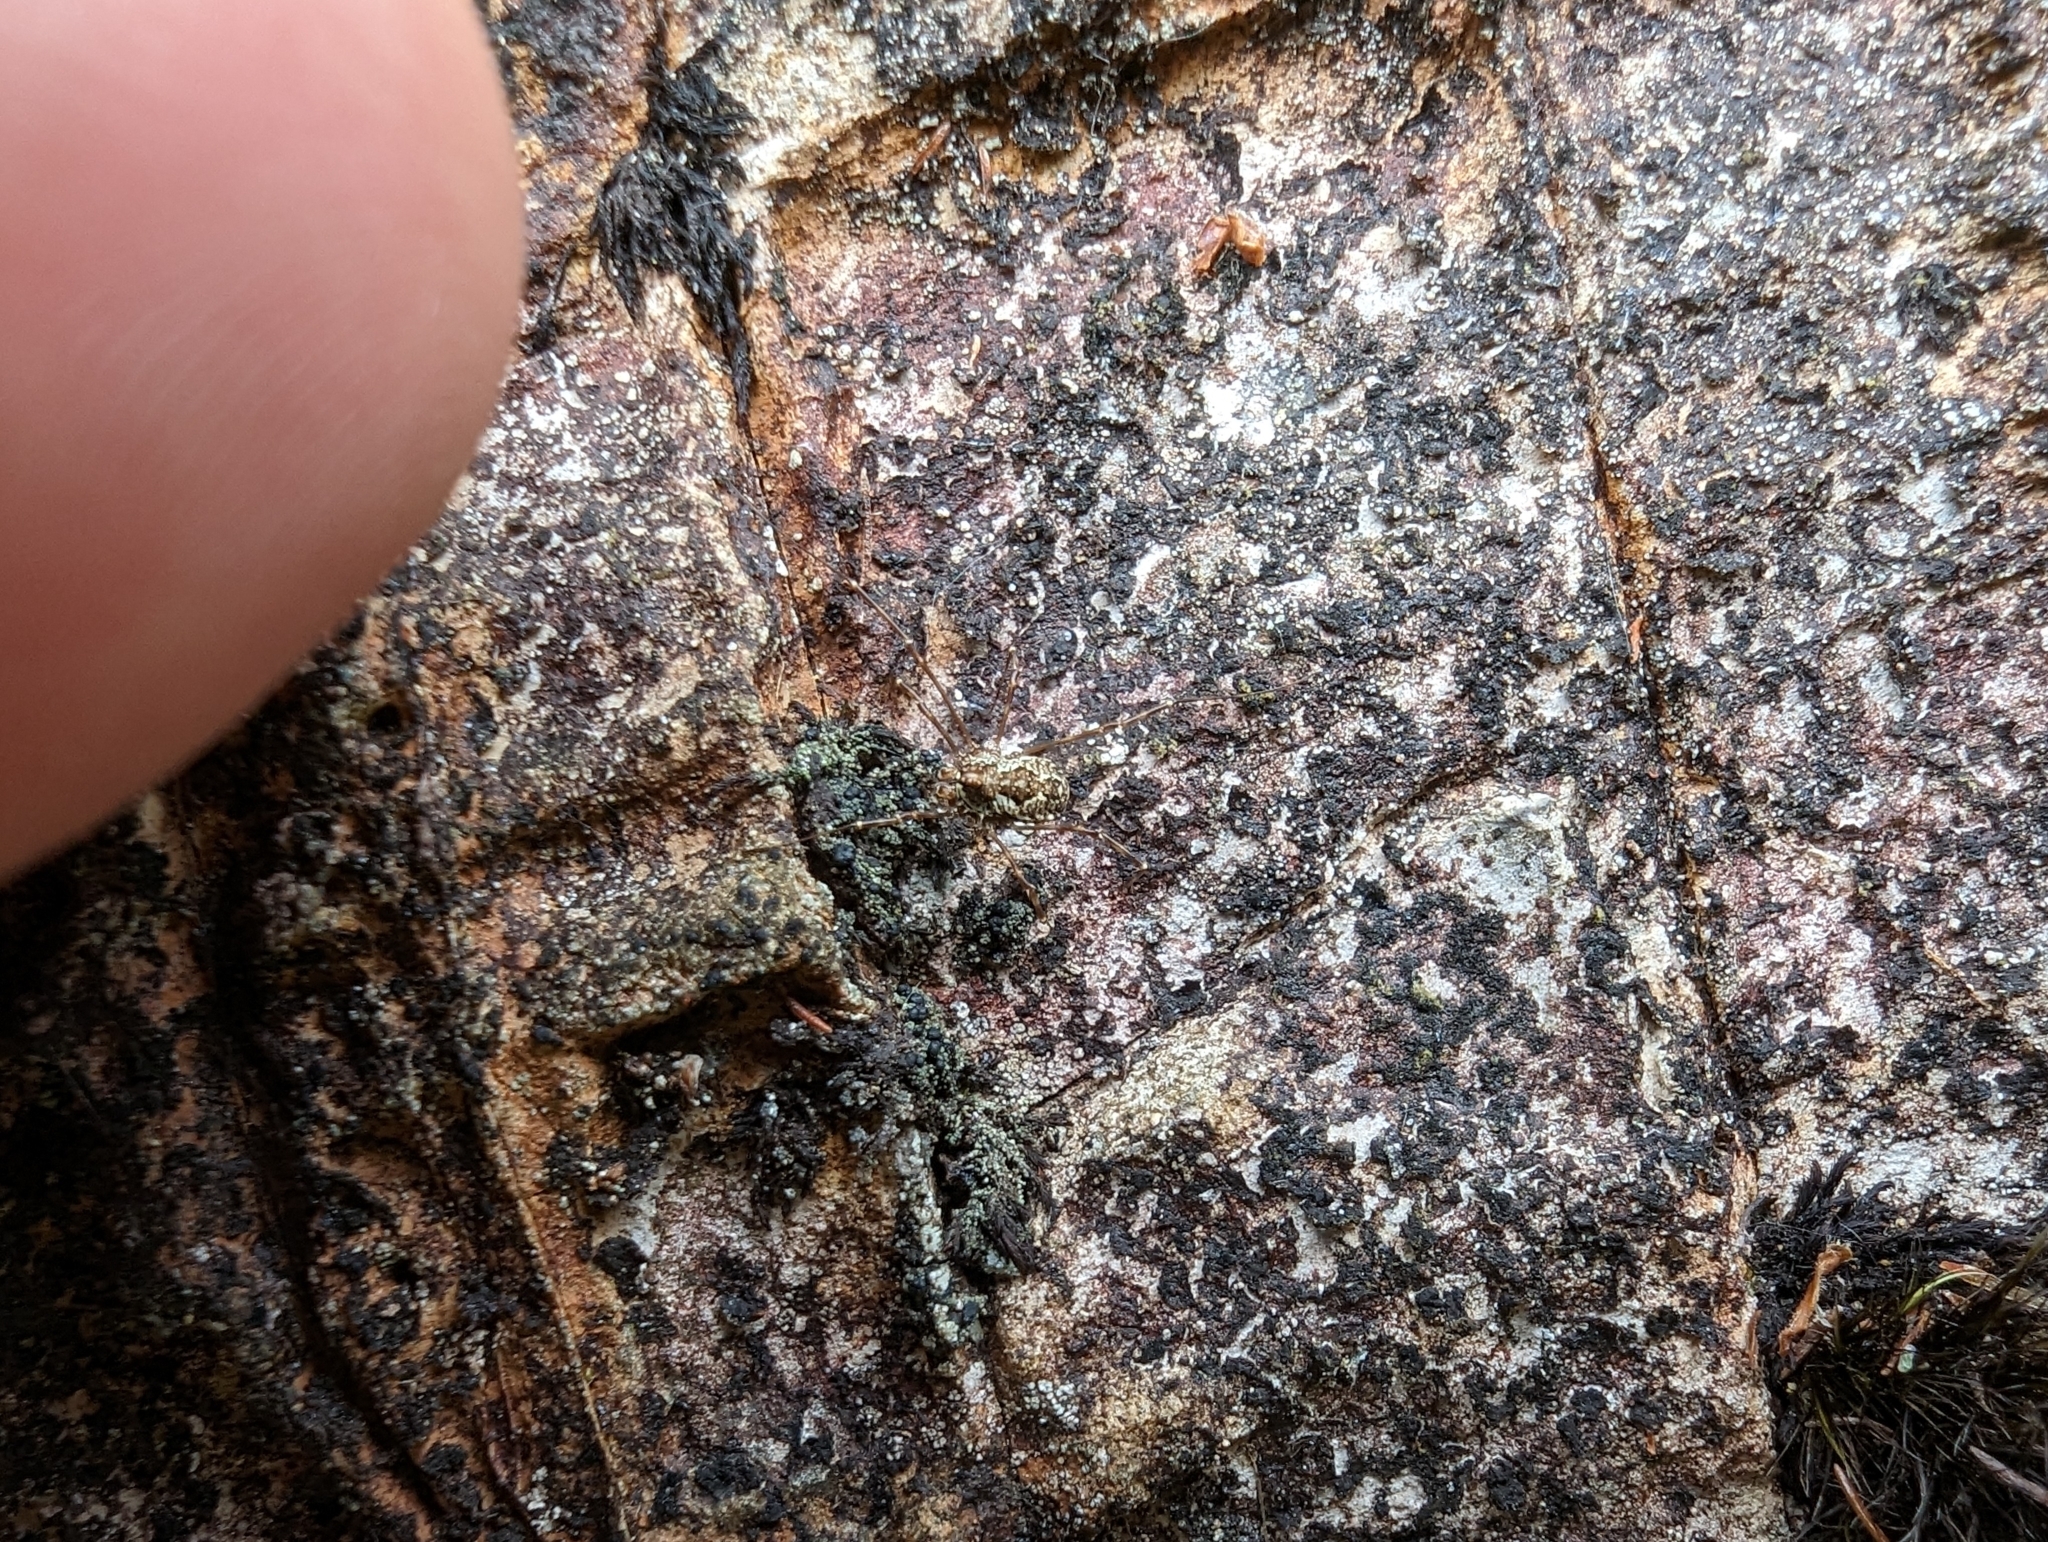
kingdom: Animalia
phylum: Arthropoda
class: Arachnida
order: Opiliones
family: Phalangiidae
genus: Megabunus
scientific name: Megabunus diadema
